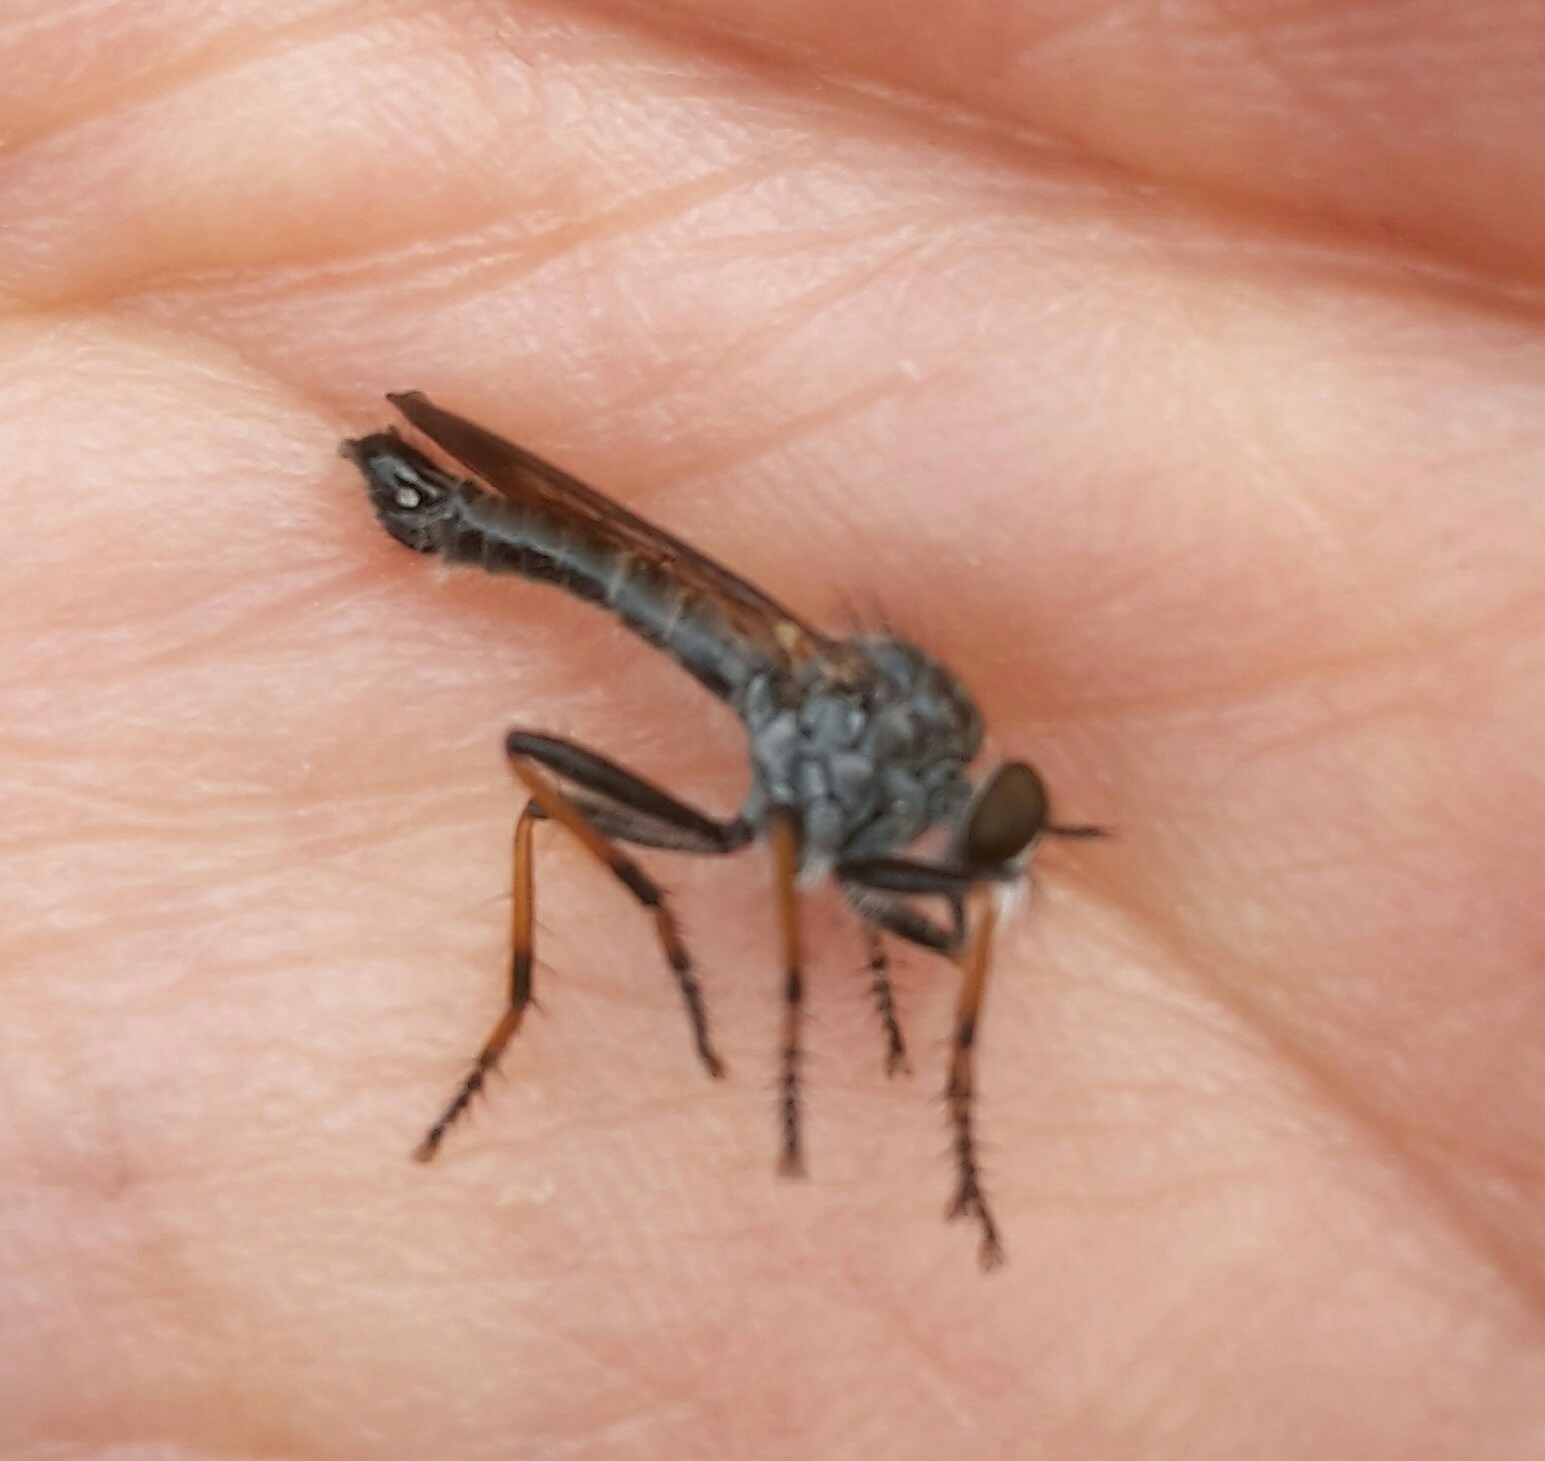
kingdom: Animalia
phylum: Arthropoda
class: Insecta
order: Diptera
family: Asilidae
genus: Paritamus
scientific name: Paritamus geniculatus
